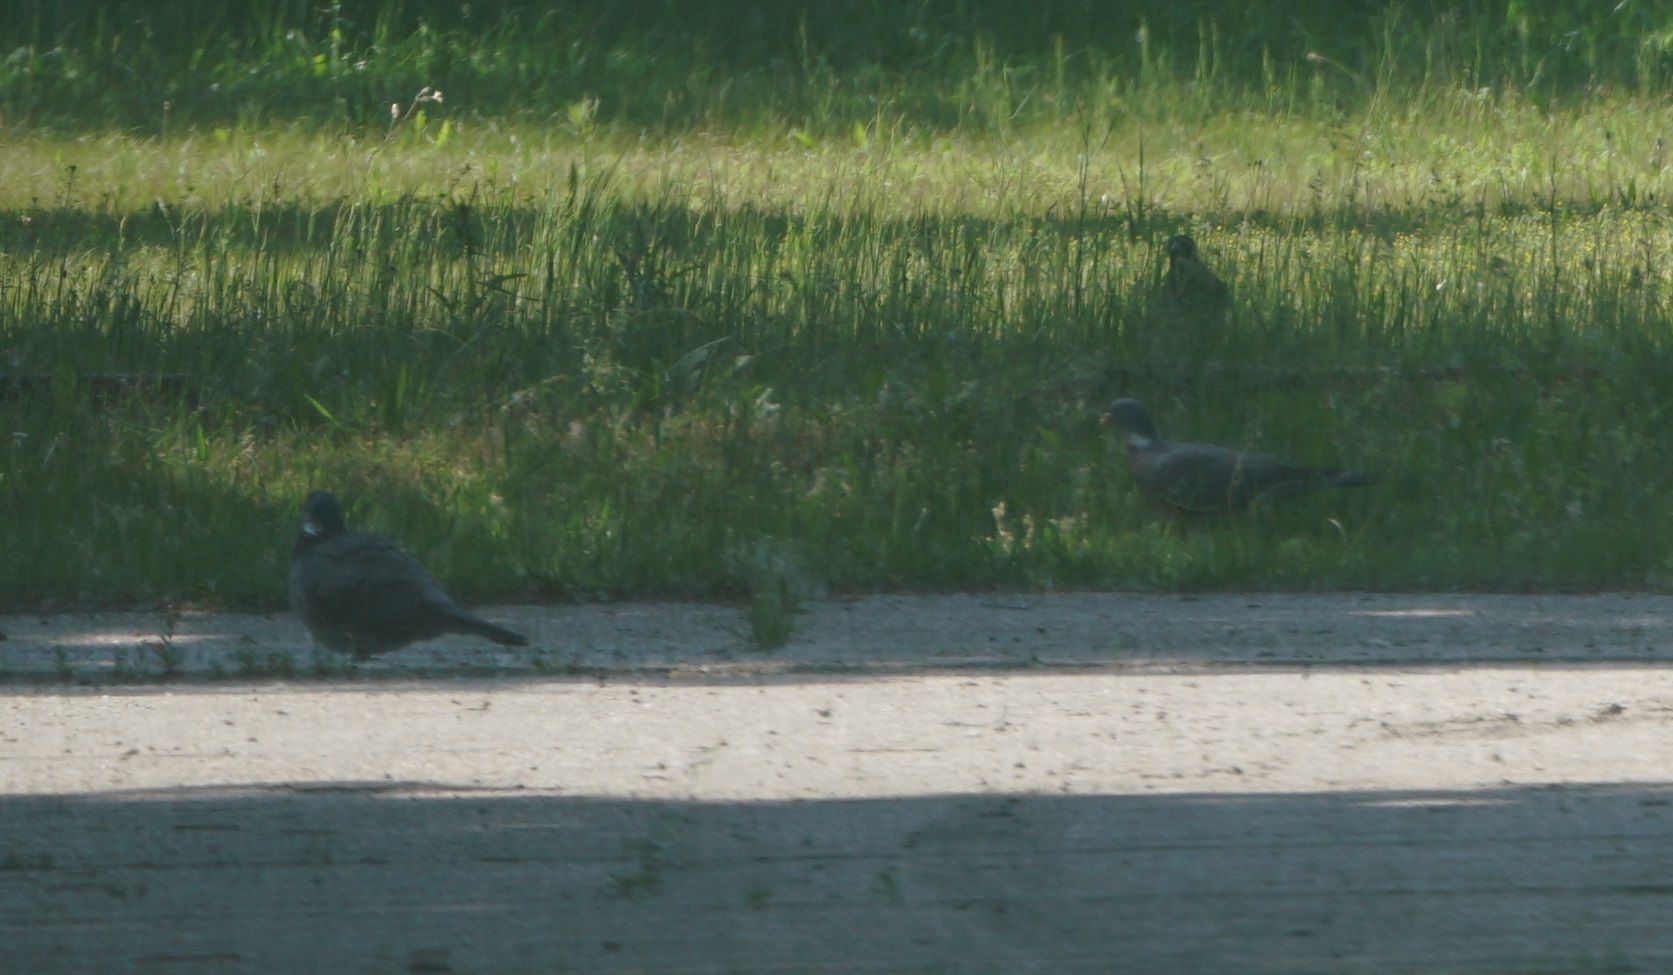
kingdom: Animalia
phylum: Chordata
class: Aves
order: Columbiformes
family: Columbidae
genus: Columba
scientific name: Columba palumbus
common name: Common wood pigeon
